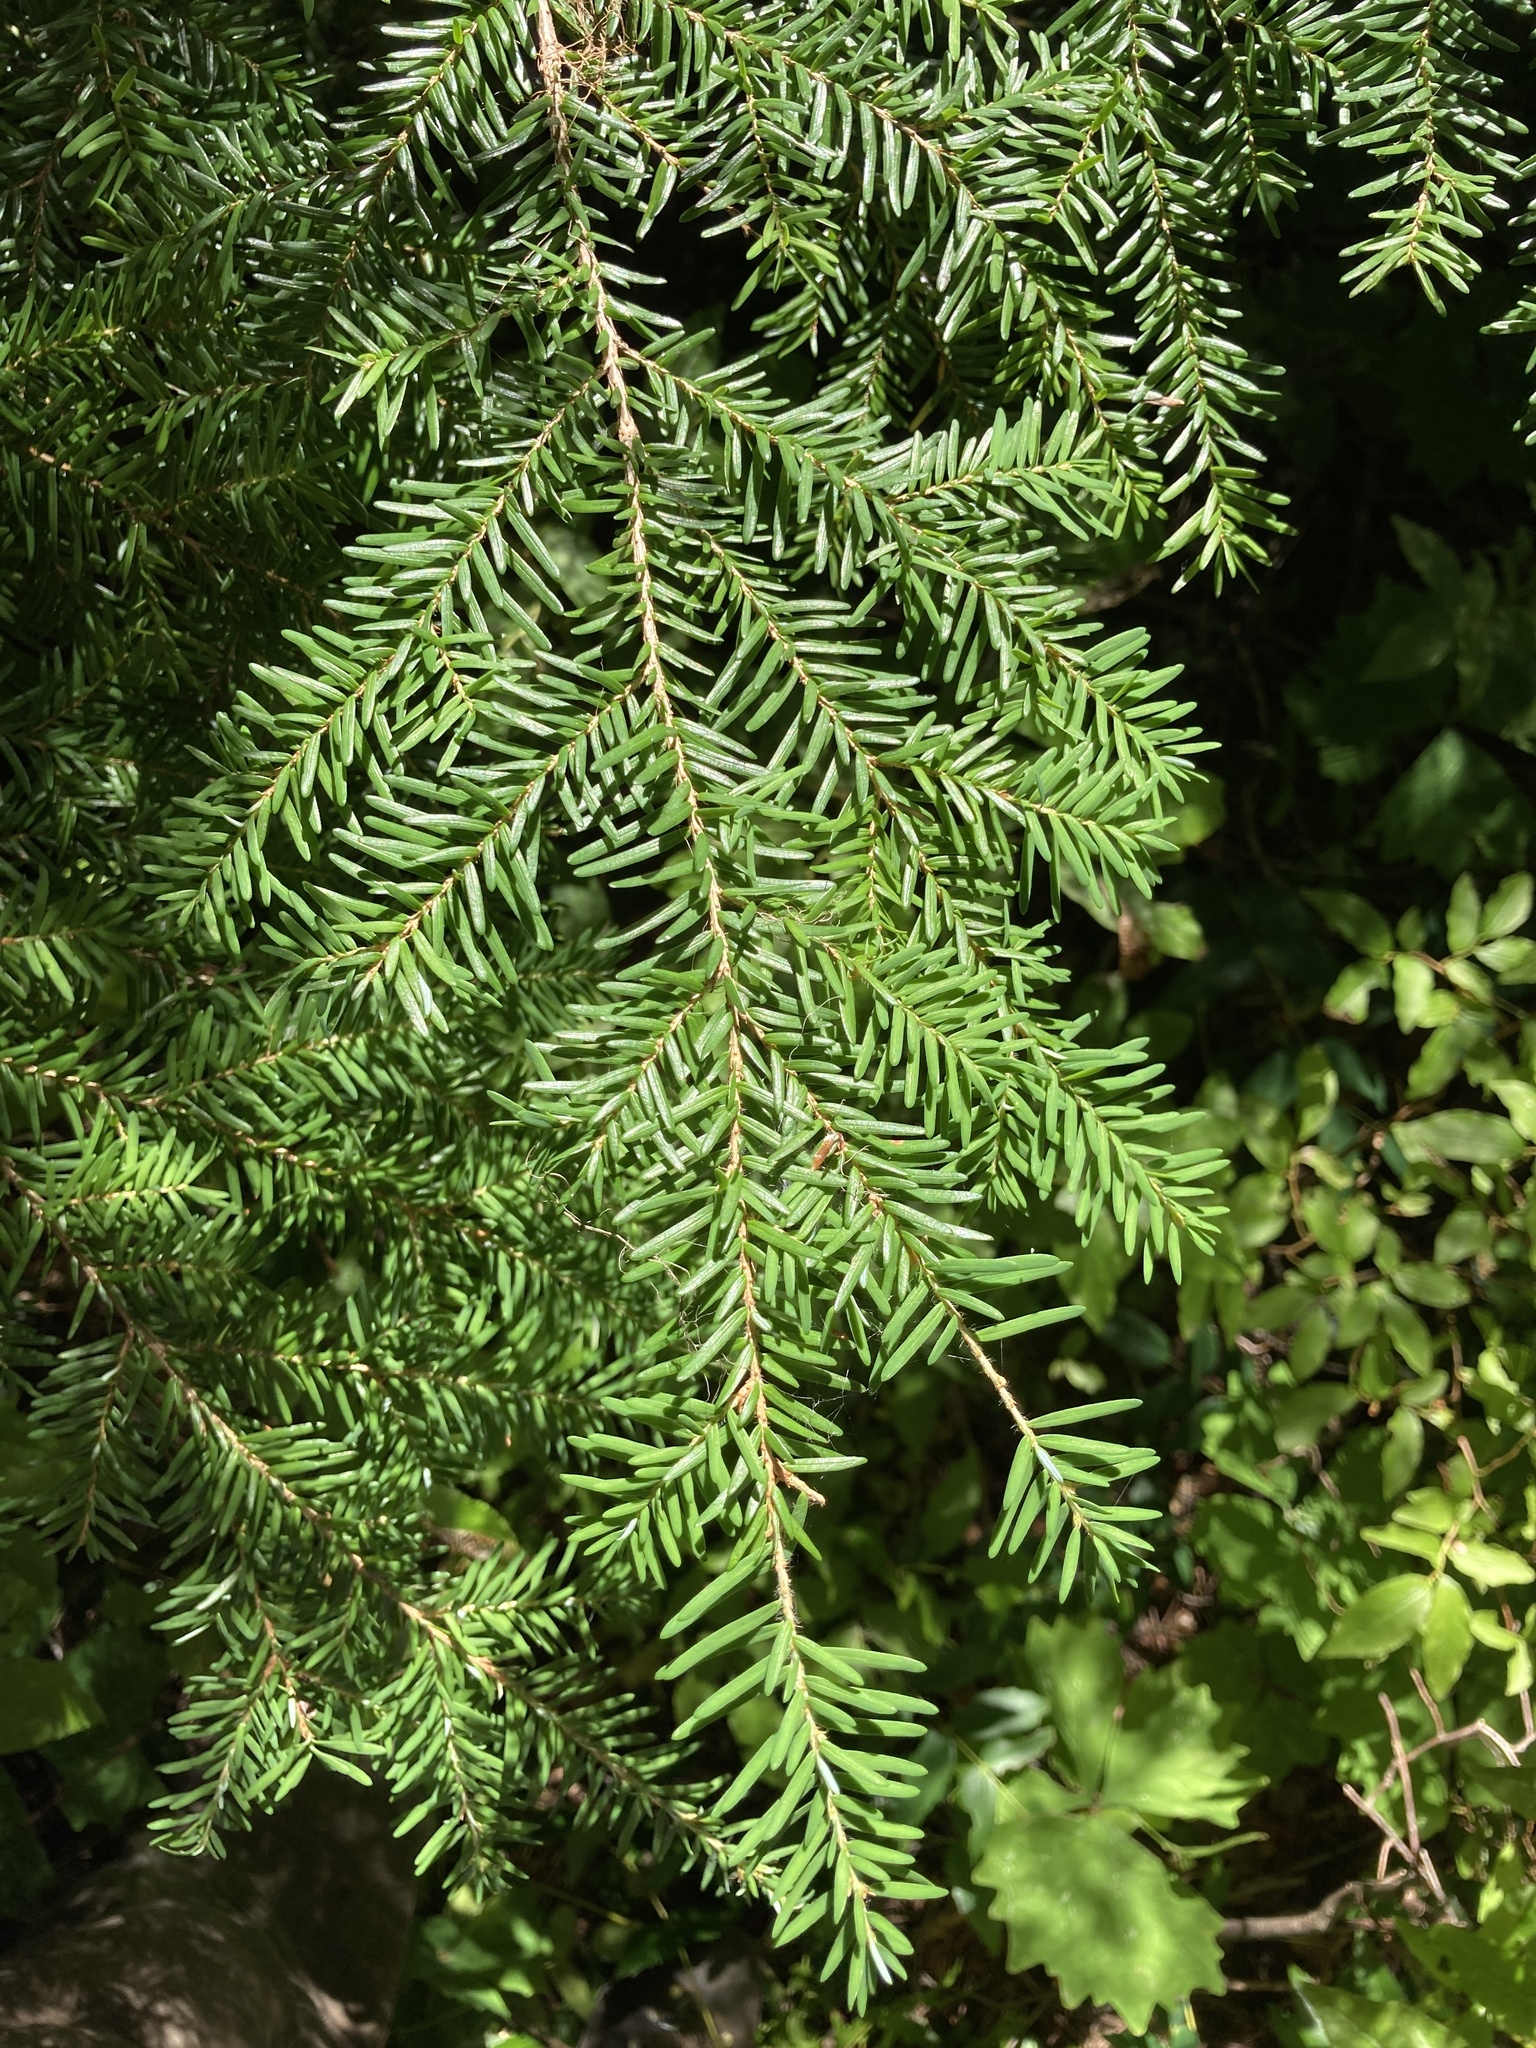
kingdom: Plantae
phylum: Tracheophyta
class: Pinopsida
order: Pinales
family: Pinaceae
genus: Tsuga
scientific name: Tsuga heterophylla
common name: Western hemlock
